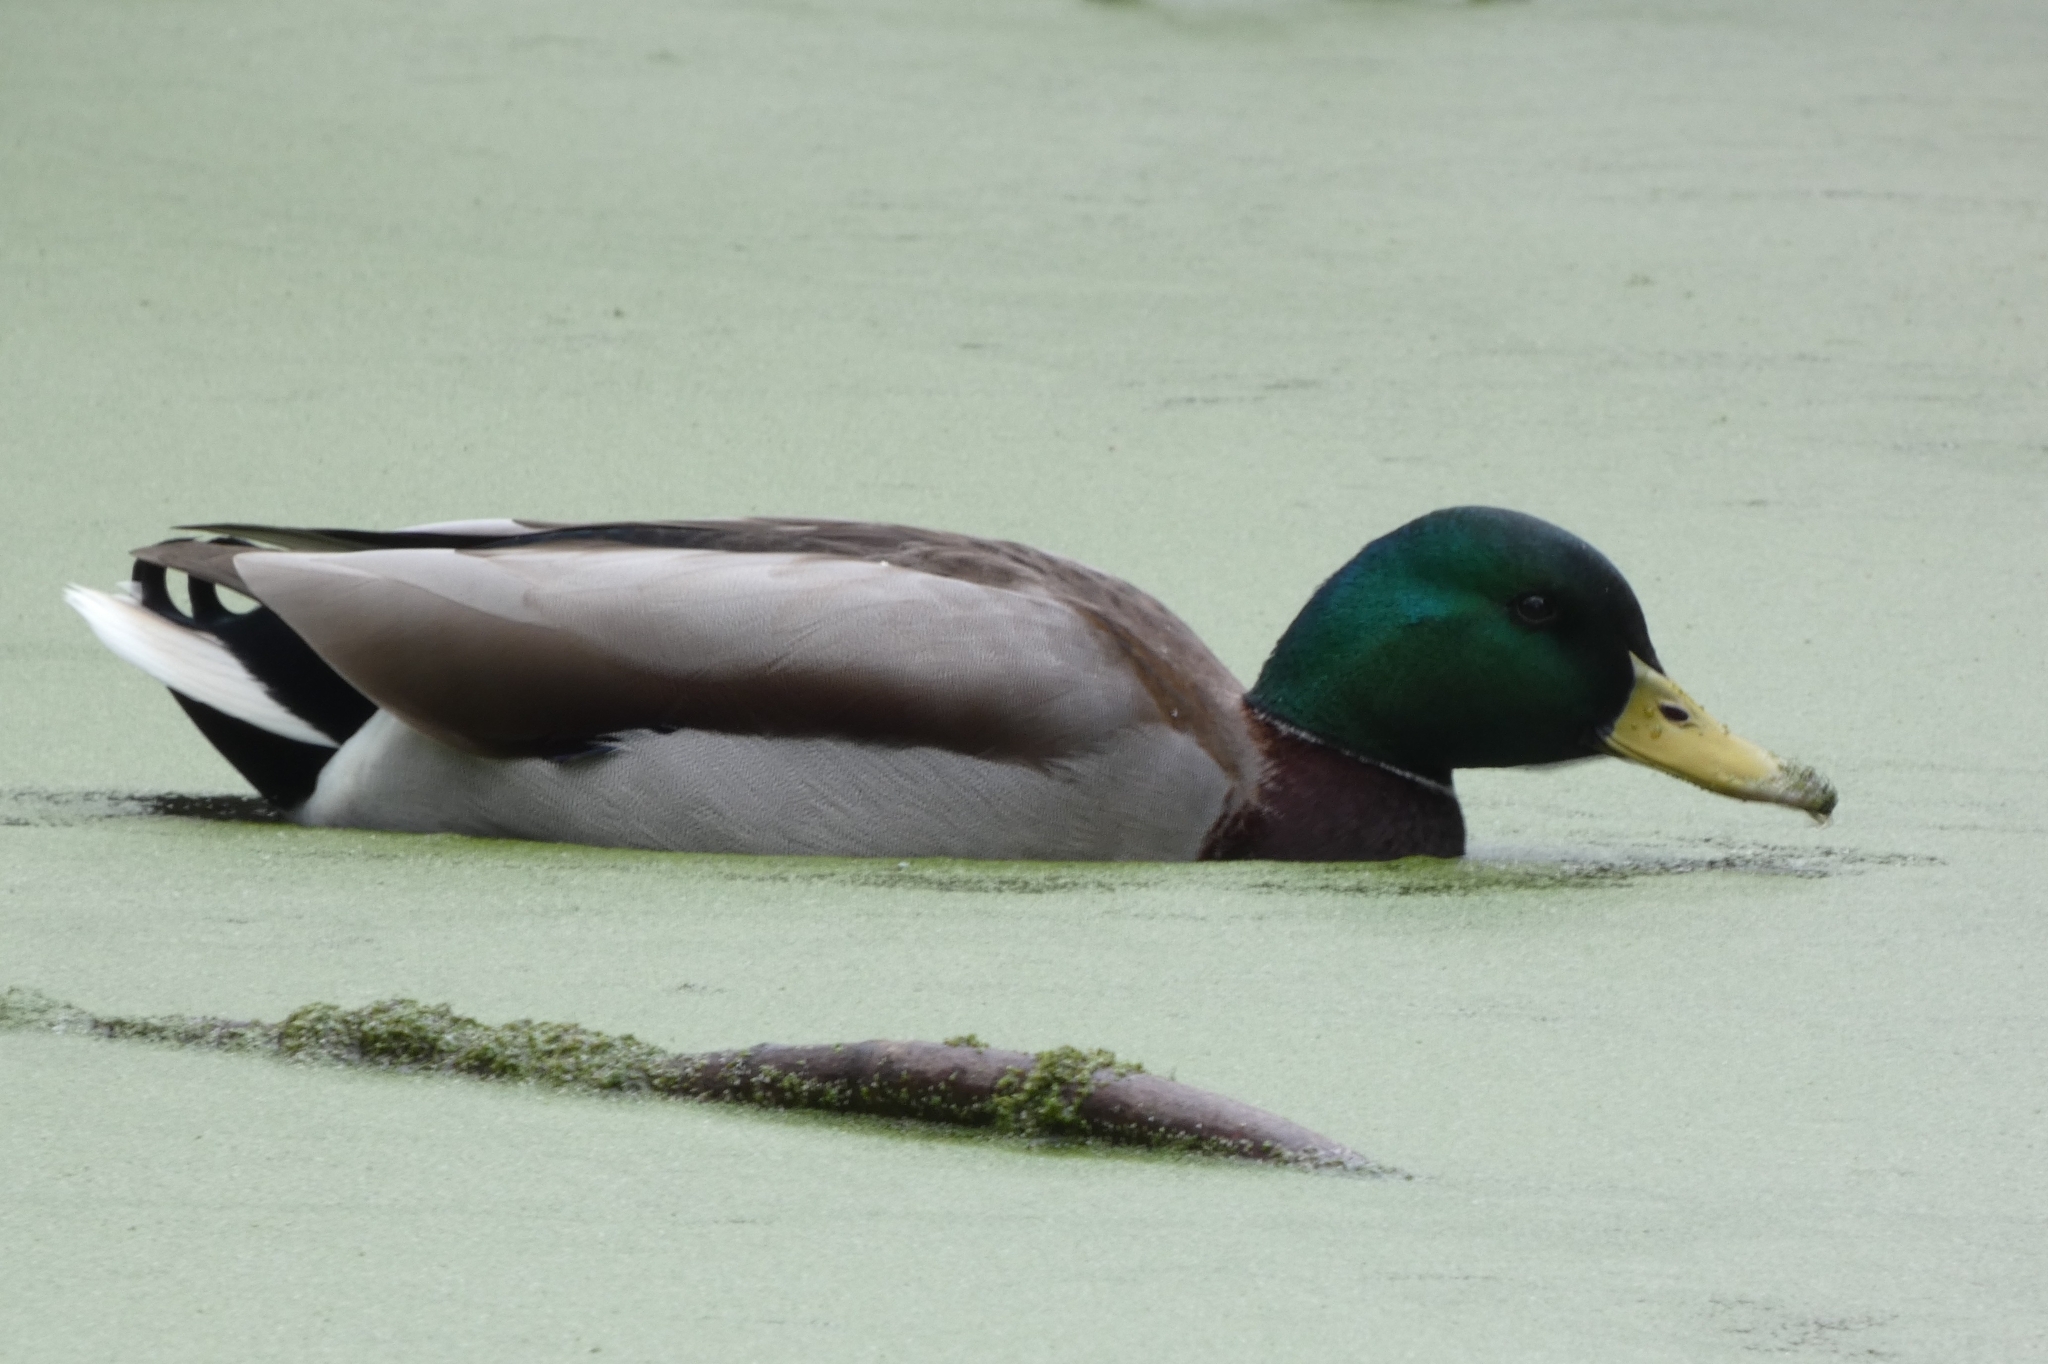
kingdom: Animalia
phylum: Chordata
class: Aves
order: Anseriformes
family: Anatidae
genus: Anas
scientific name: Anas platyrhynchos
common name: Mallard
